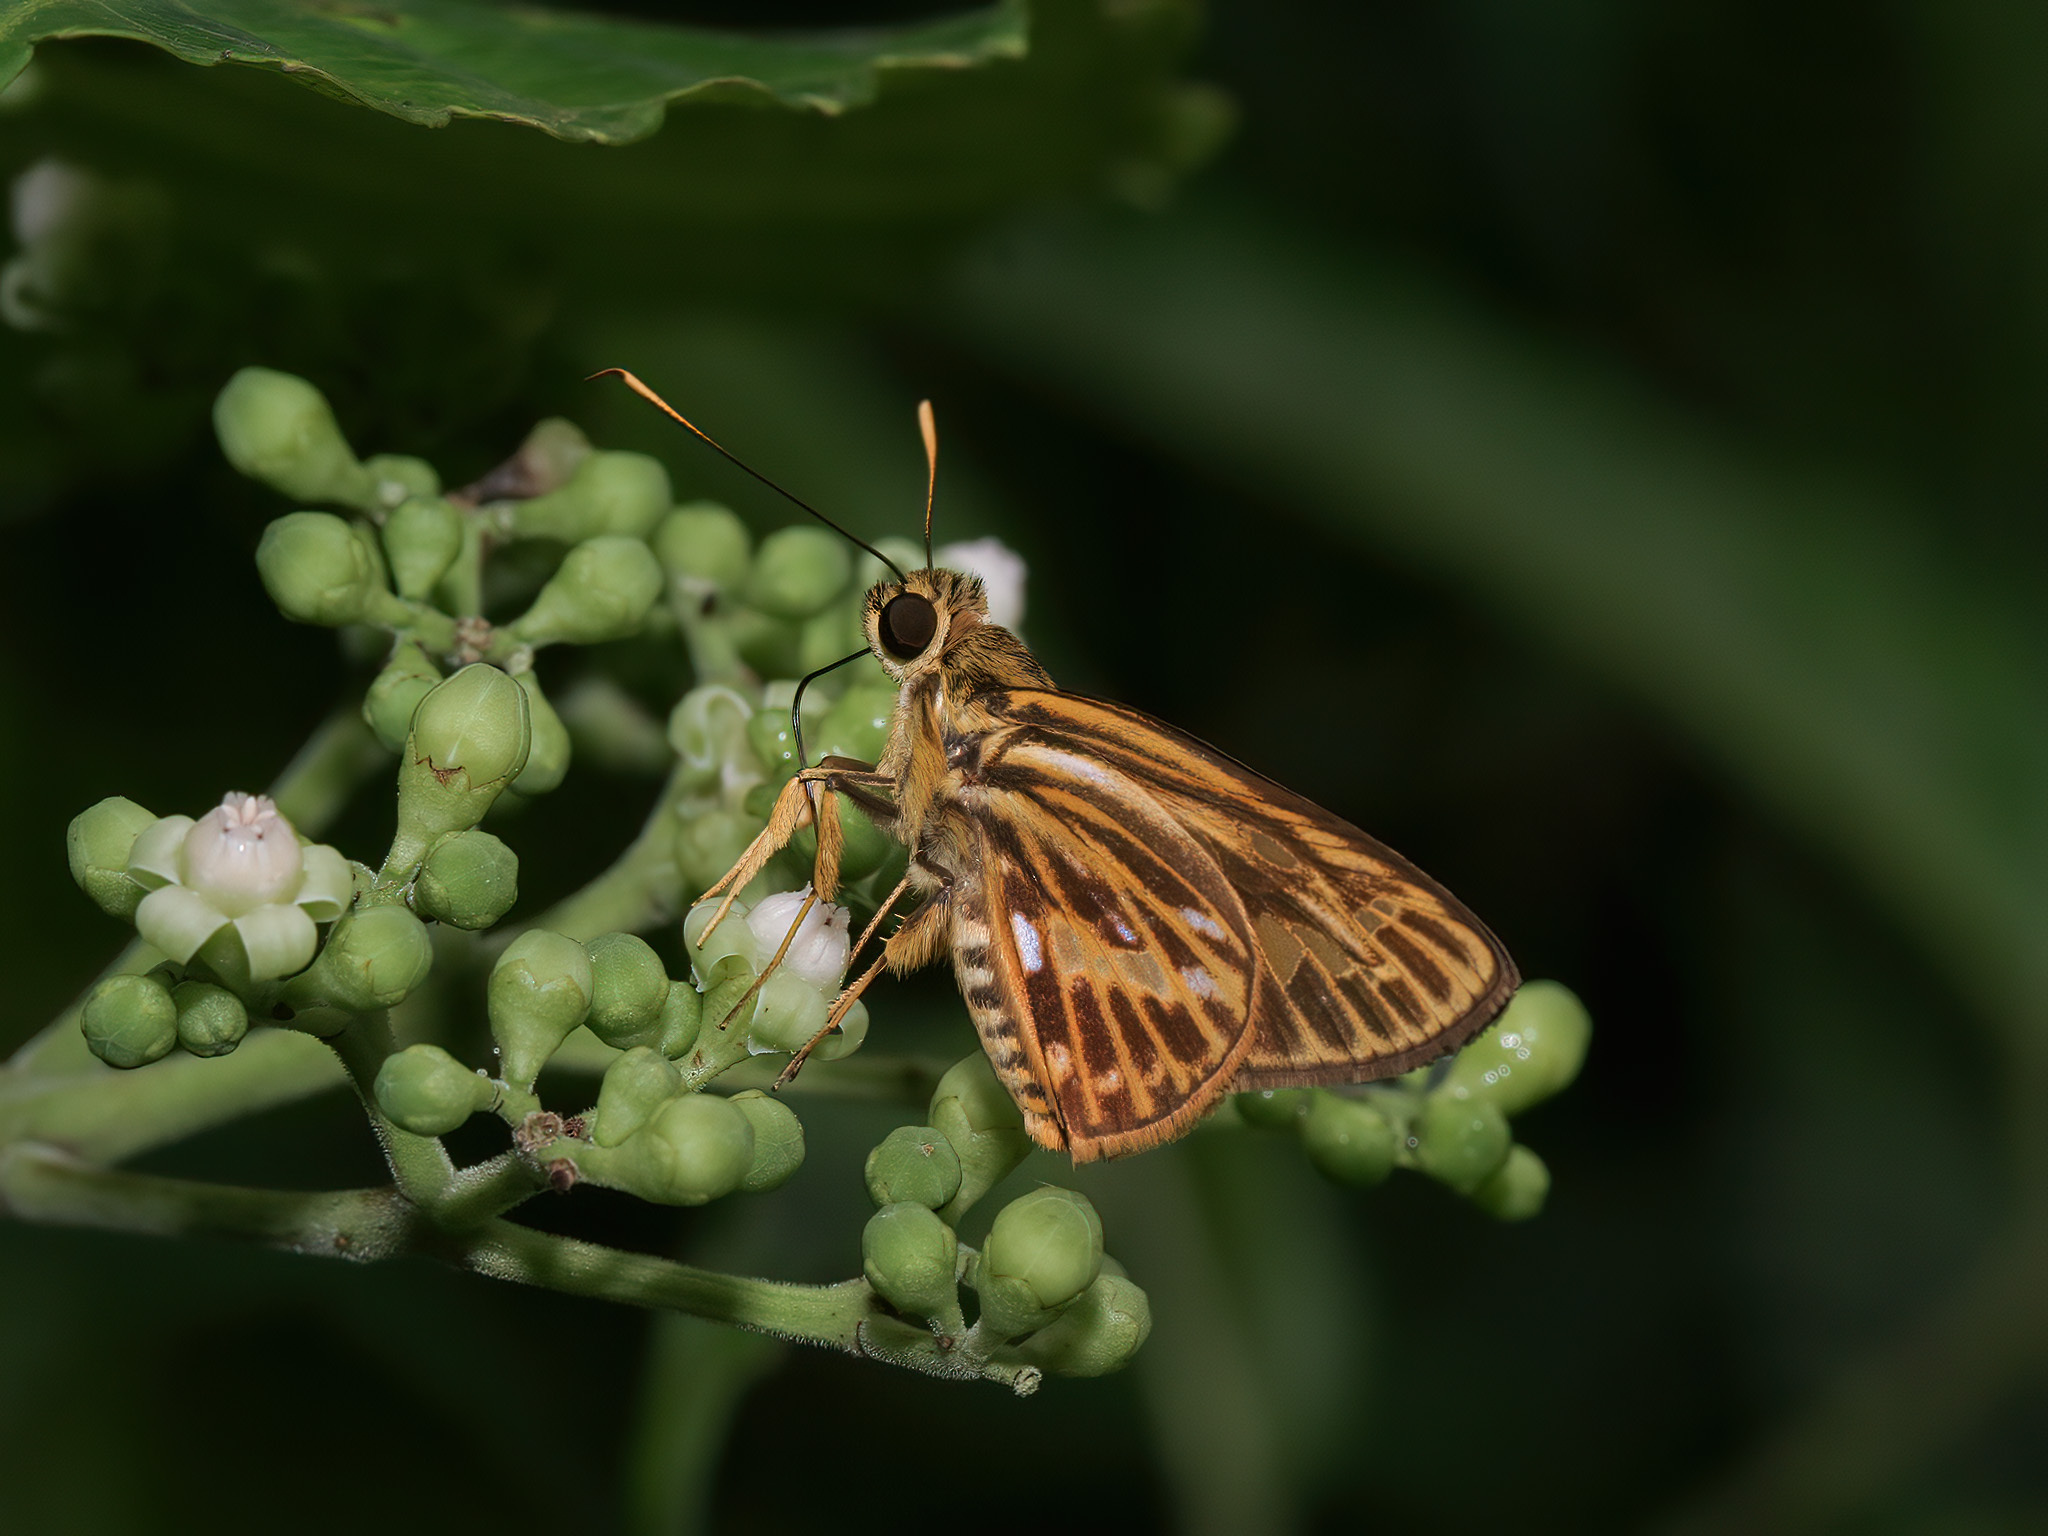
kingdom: Animalia
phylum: Arthropoda
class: Insecta
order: Lepidoptera
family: Hesperiidae
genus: Pyroneura
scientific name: Pyroneura latoia
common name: Yellow vein lancer
